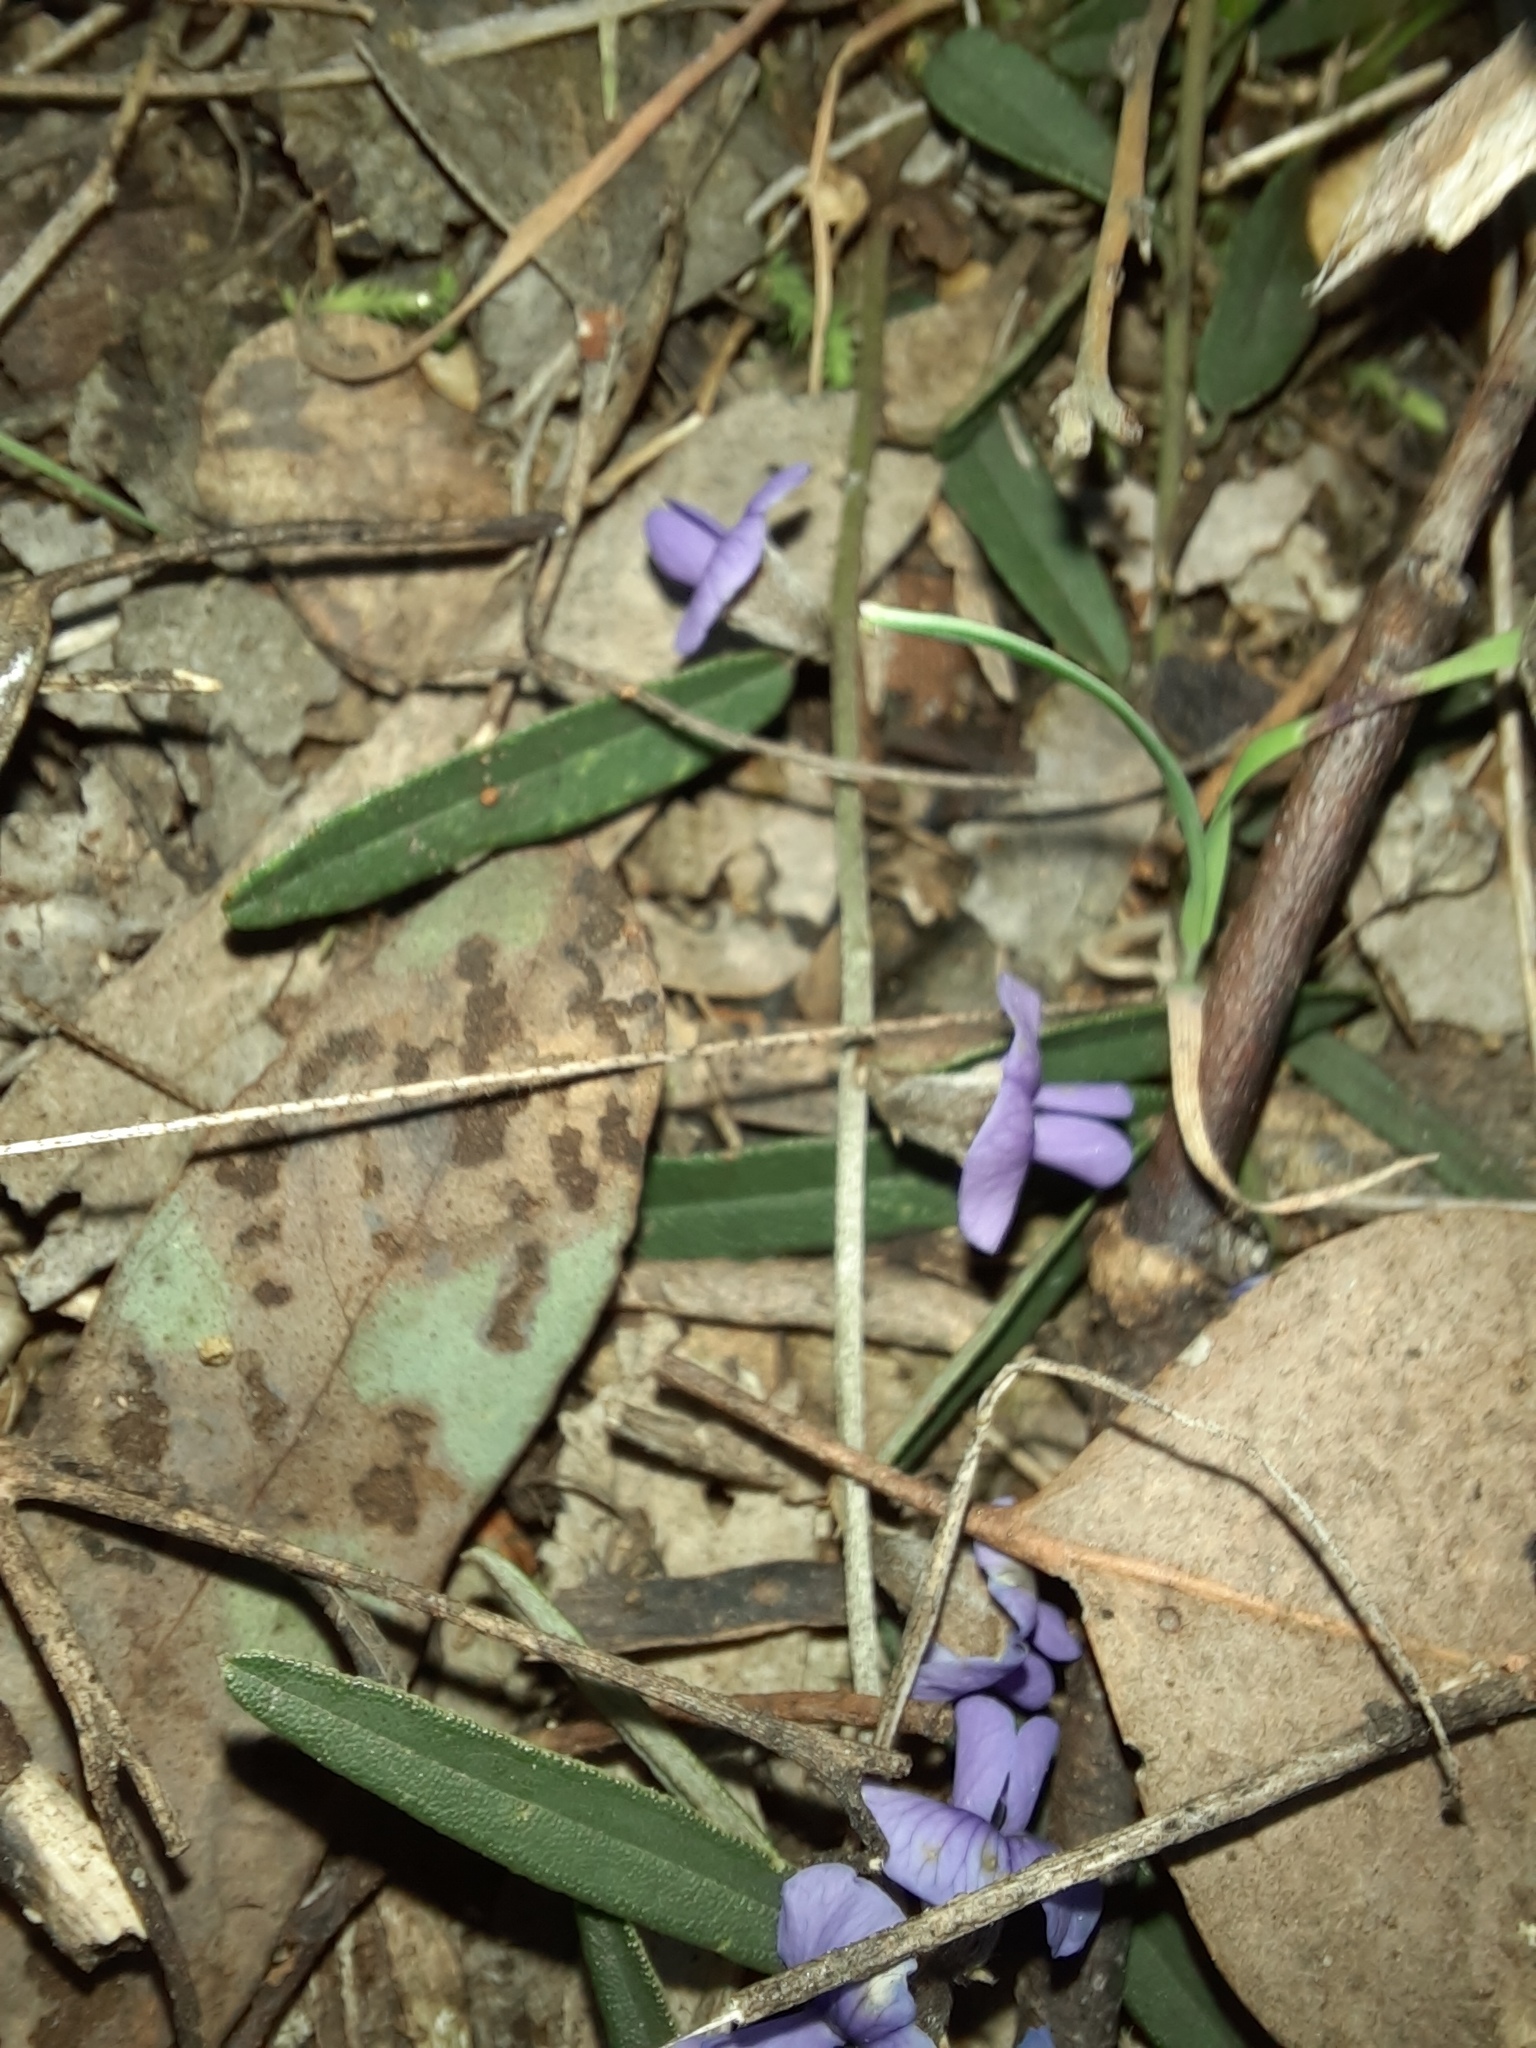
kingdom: Plantae
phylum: Tracheophyta
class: Magnoliopsida
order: Fabales
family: Fabaceae
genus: Hovea
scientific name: Hovea heterophylla
